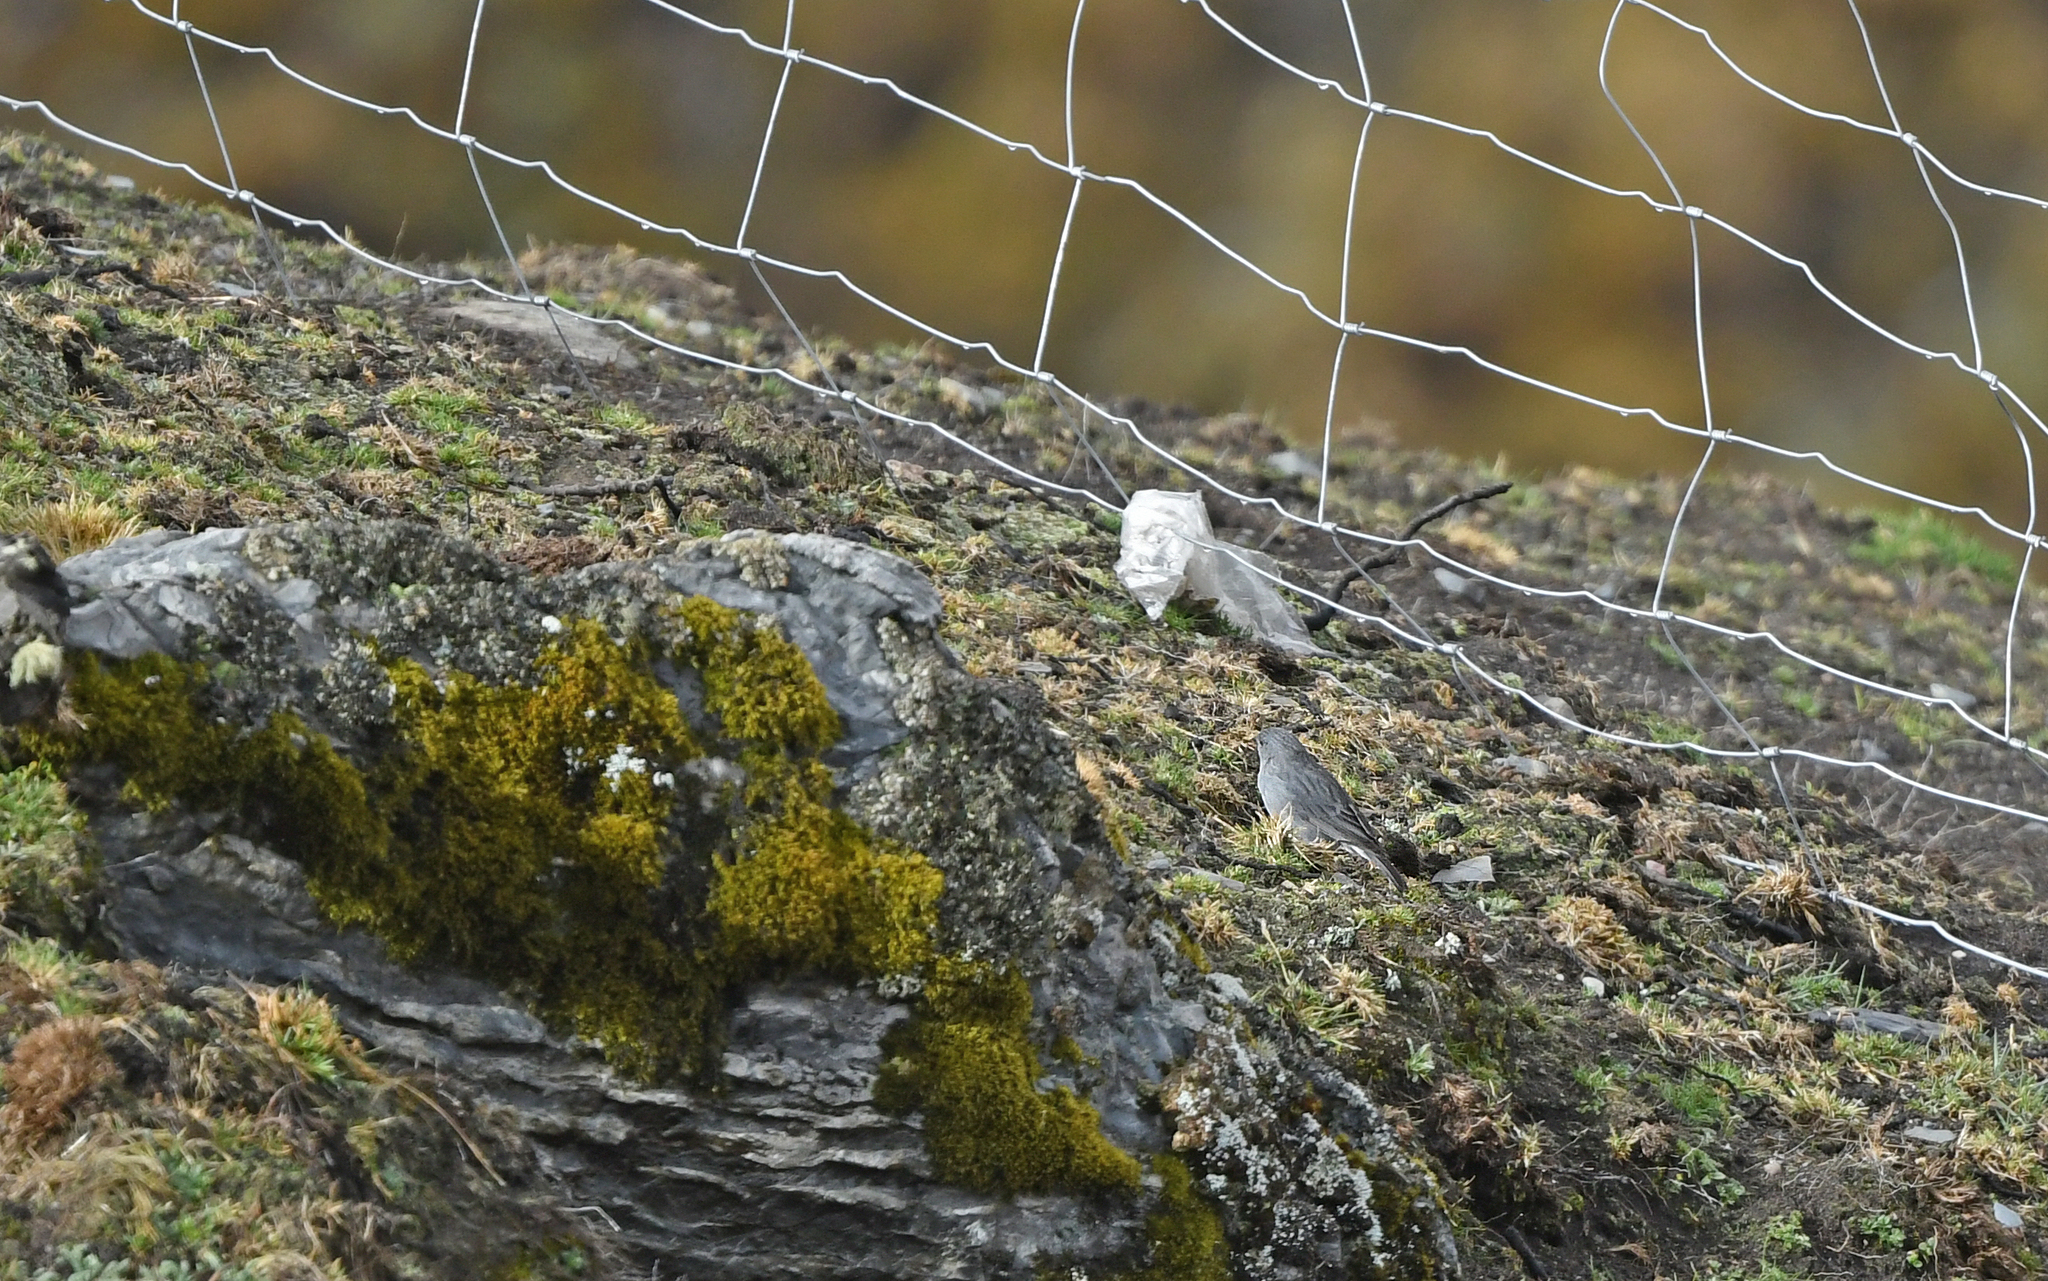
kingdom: Animalia
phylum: Chordata
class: Aves
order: Passeriformes
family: Thraupidae
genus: Geospizopsis
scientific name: Geospizopsis plebejus
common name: Ash-breasted sierra-finch
